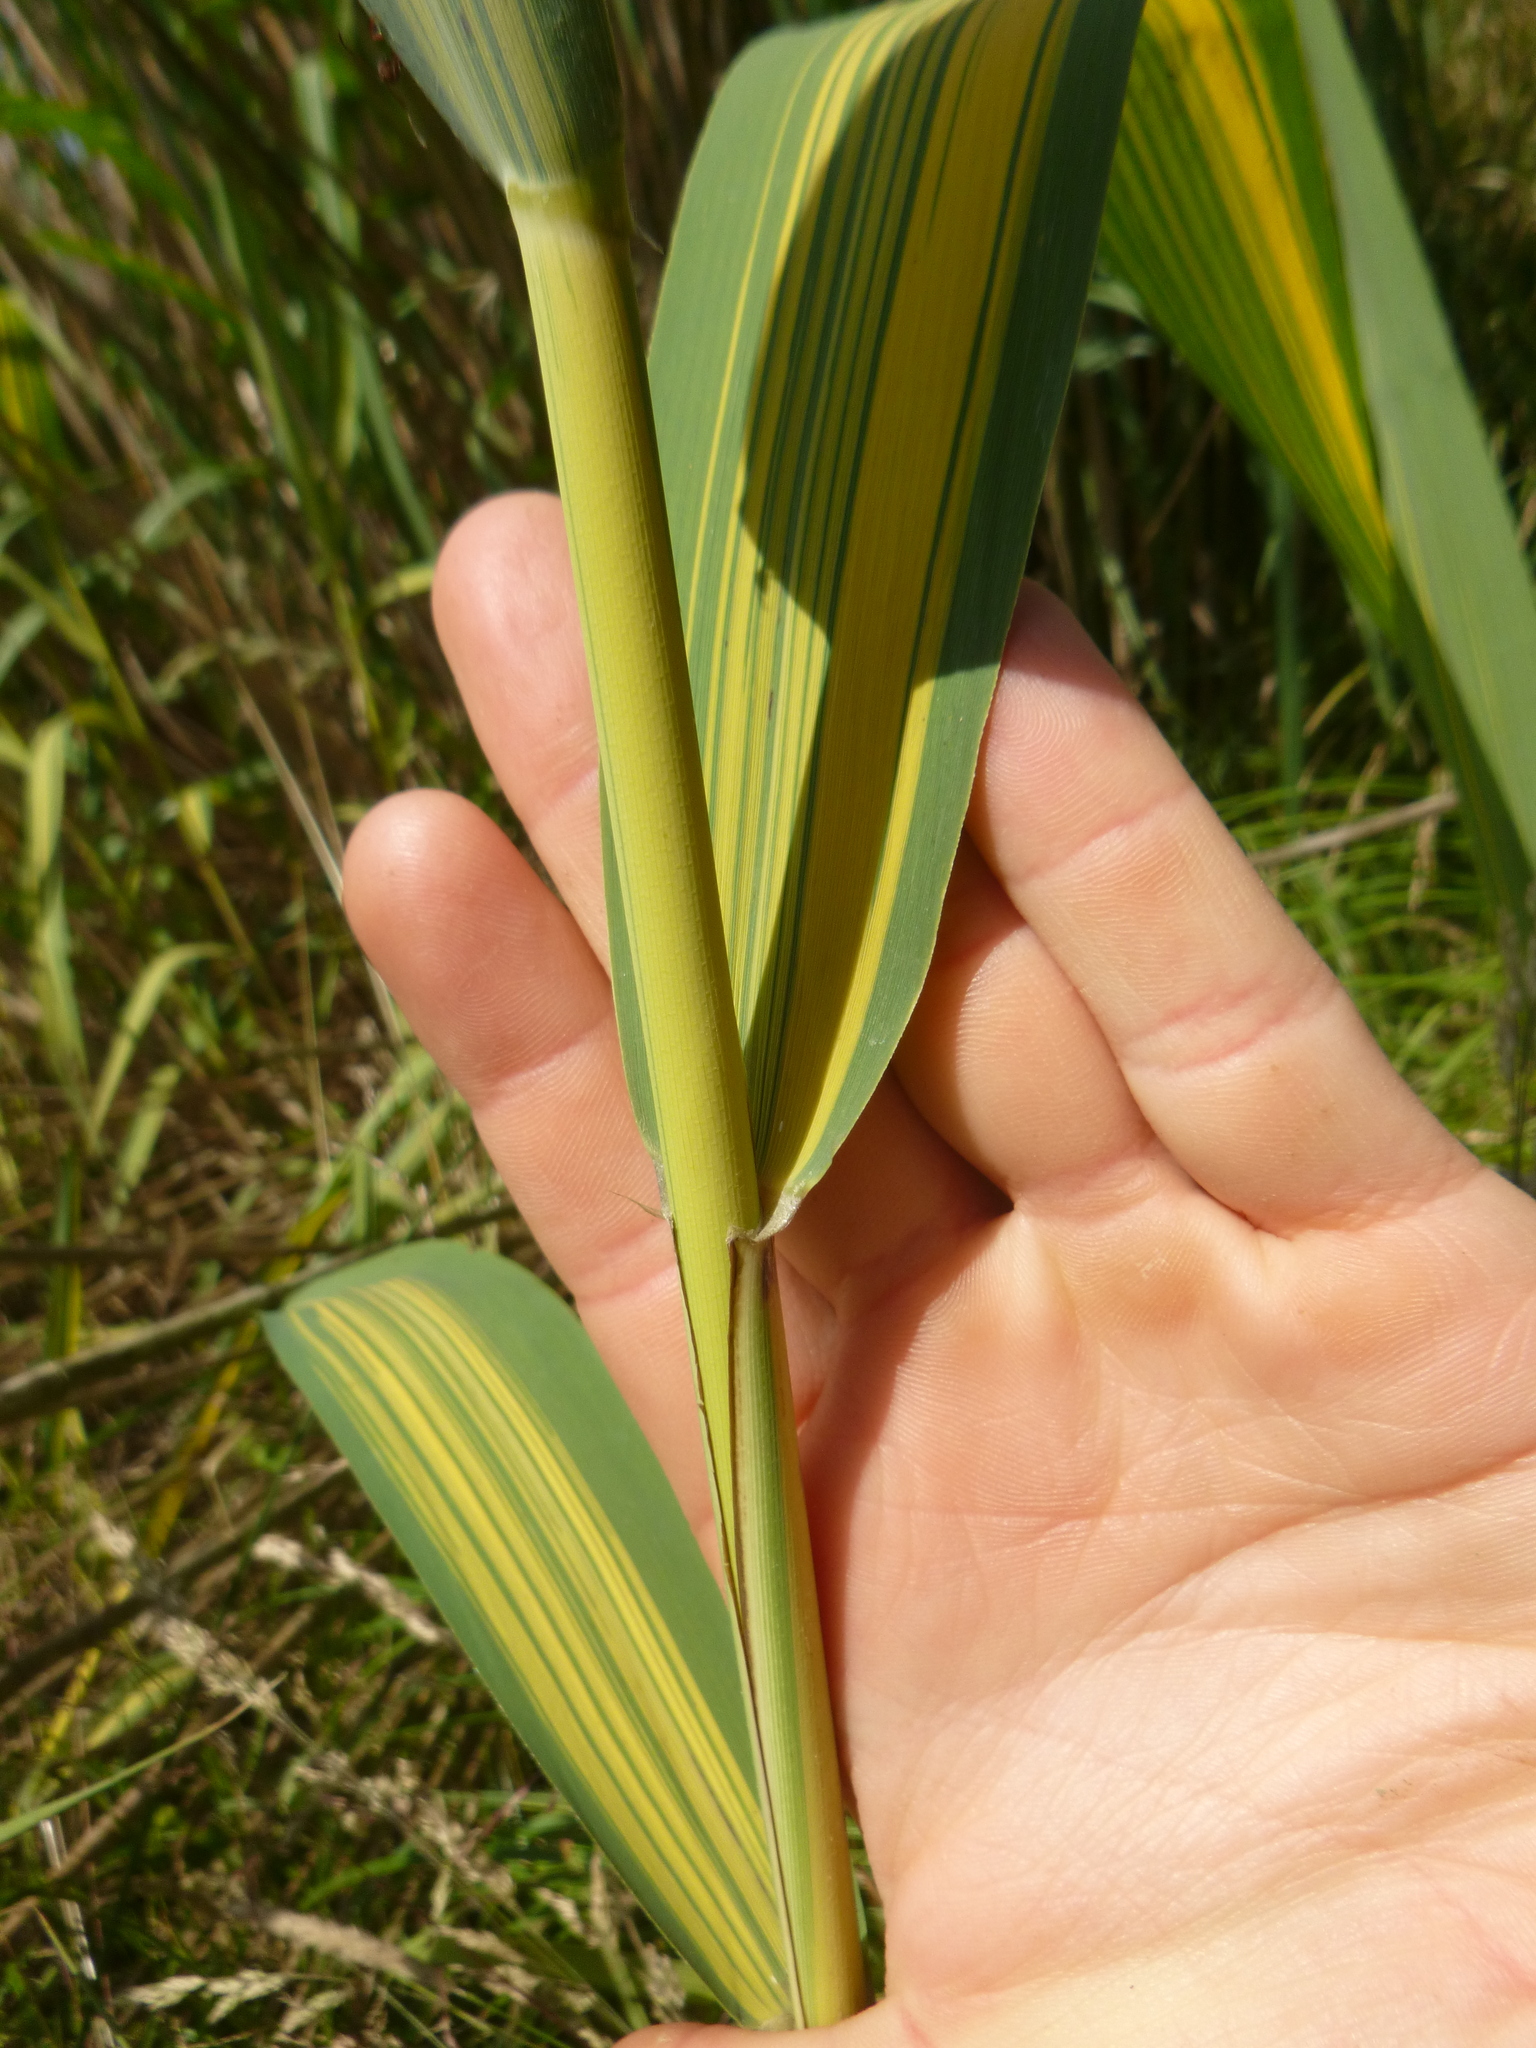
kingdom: Plantae
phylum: Tracheophyta
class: Liliopsida
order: Poales
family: Poaceae
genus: Phragmites
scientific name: Phragmites australis
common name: Common reed
